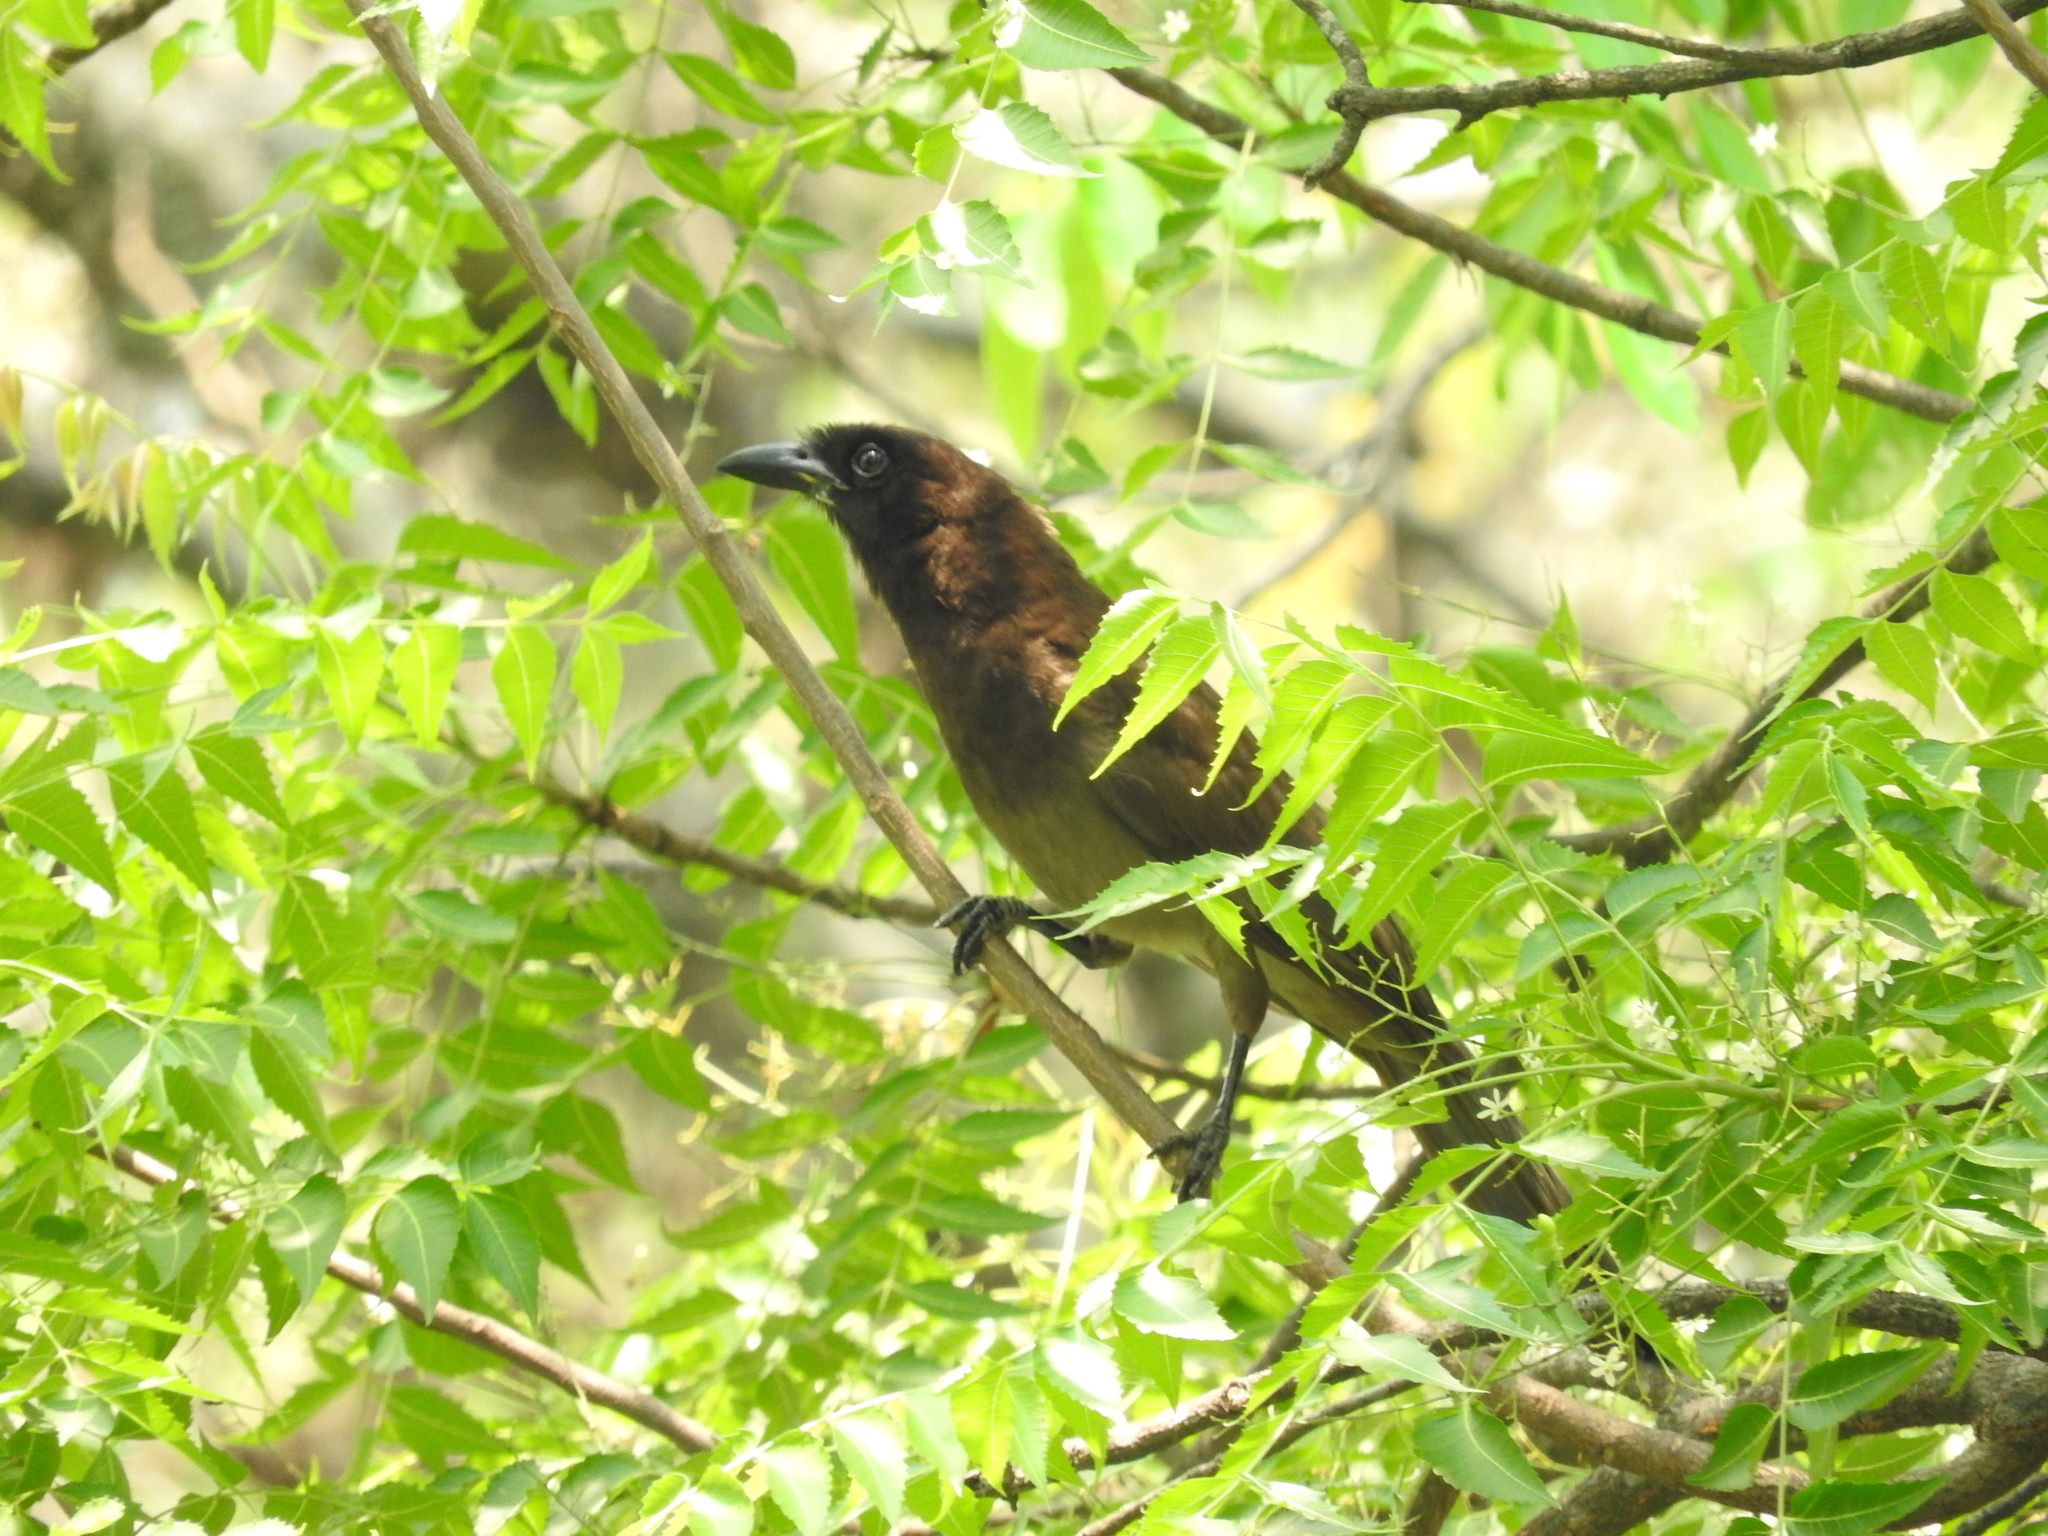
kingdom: Animalia
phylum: Chordata
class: Aves
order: Passeriformes
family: Corvidae
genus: Psilorhinus
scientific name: Psilorhinus morio
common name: Brown jay
